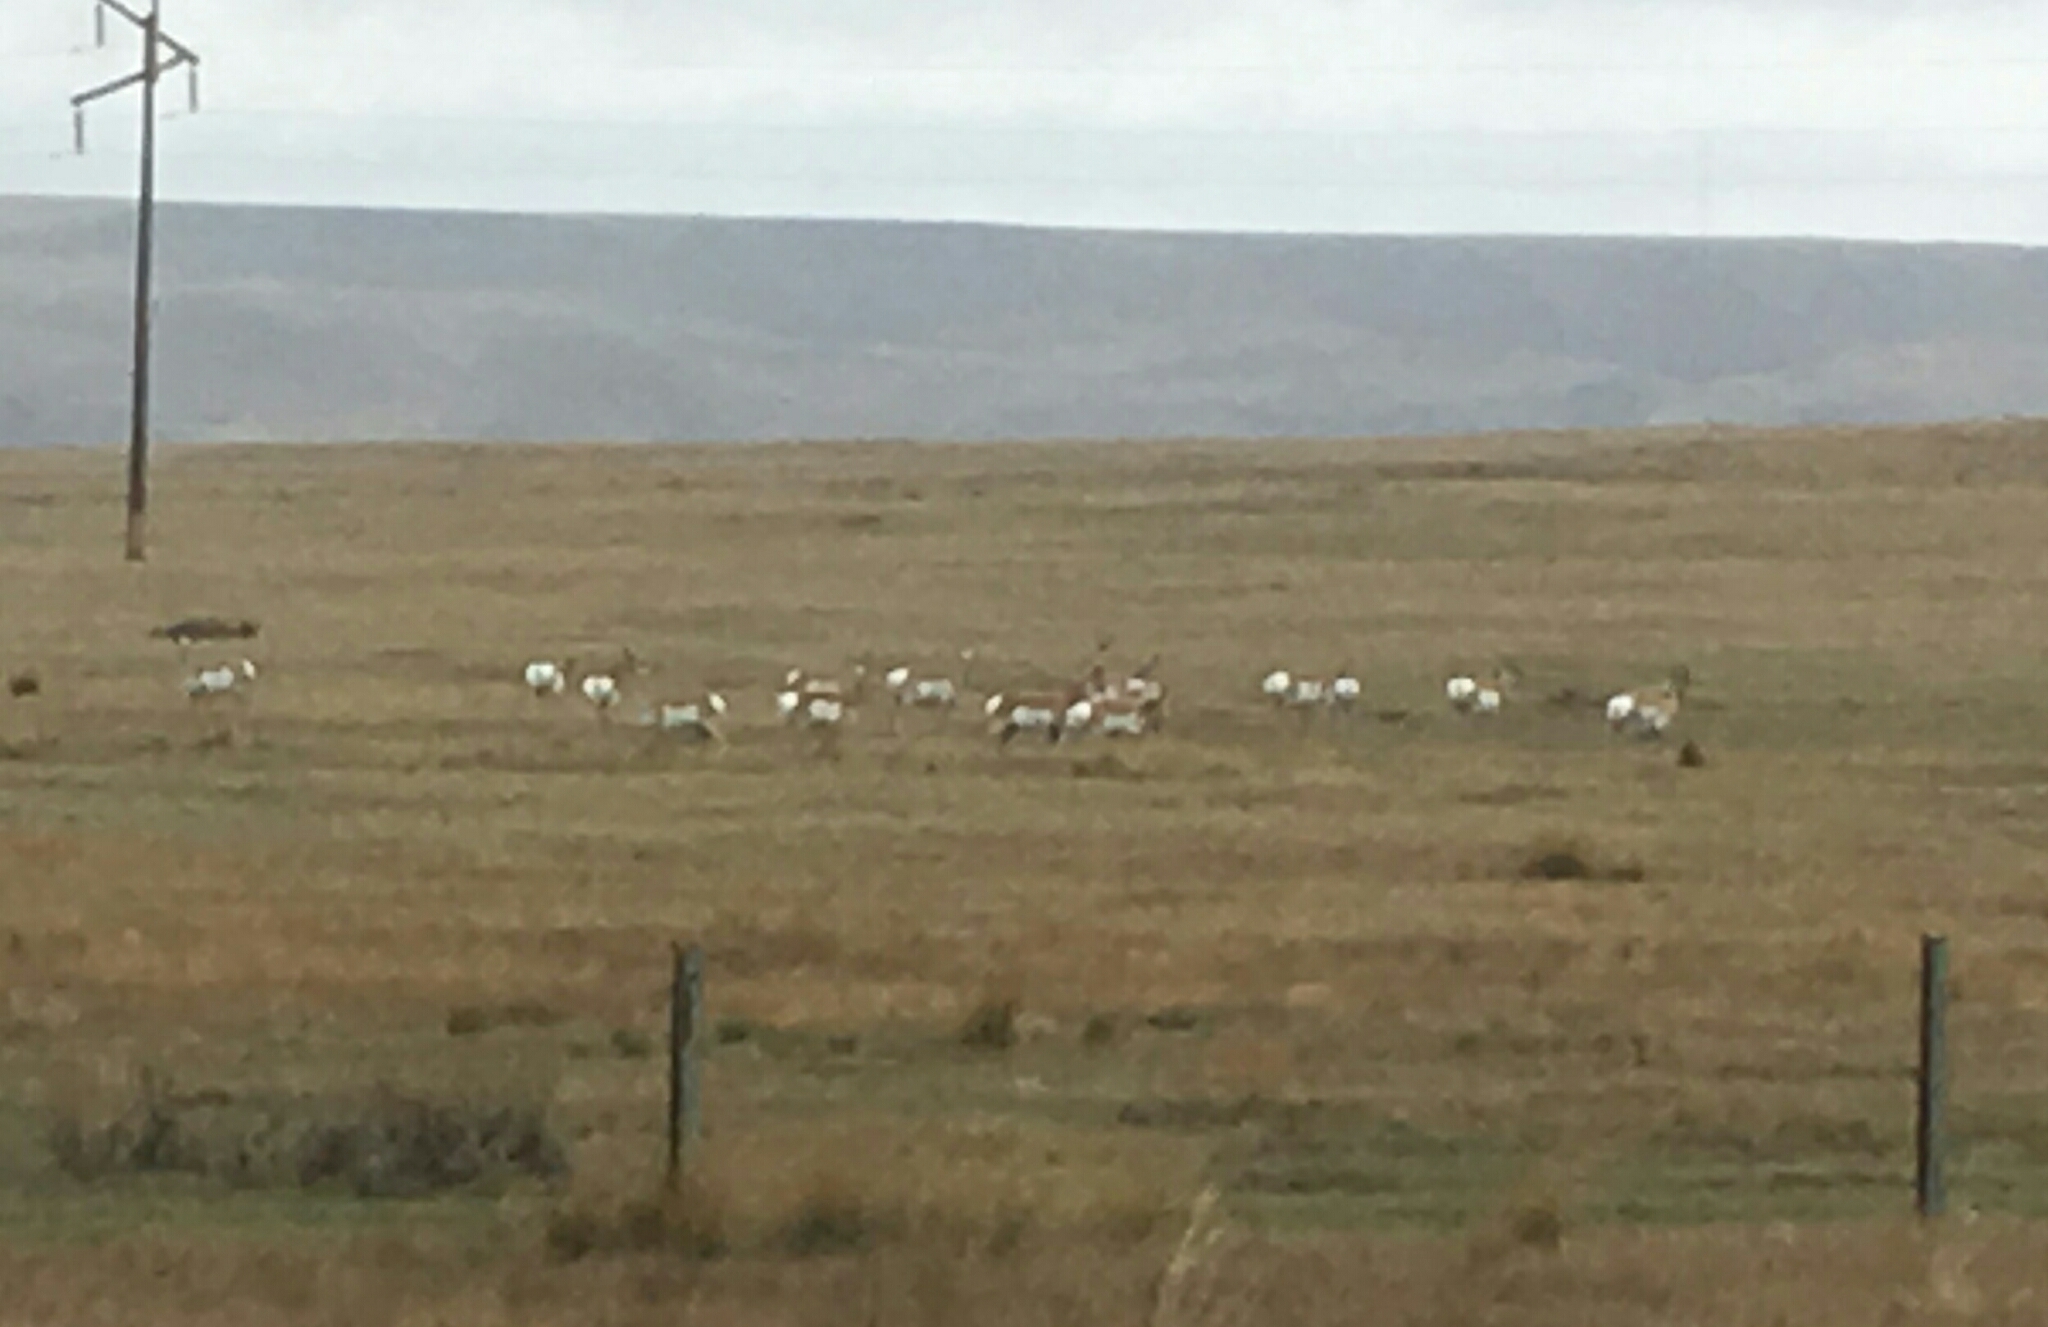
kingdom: Animalia
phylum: Chordata
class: Mammalia
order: Artiodactyla
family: Antilocapridae
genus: Antilocapra
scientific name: Antilocapra americana
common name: Pronghorn
